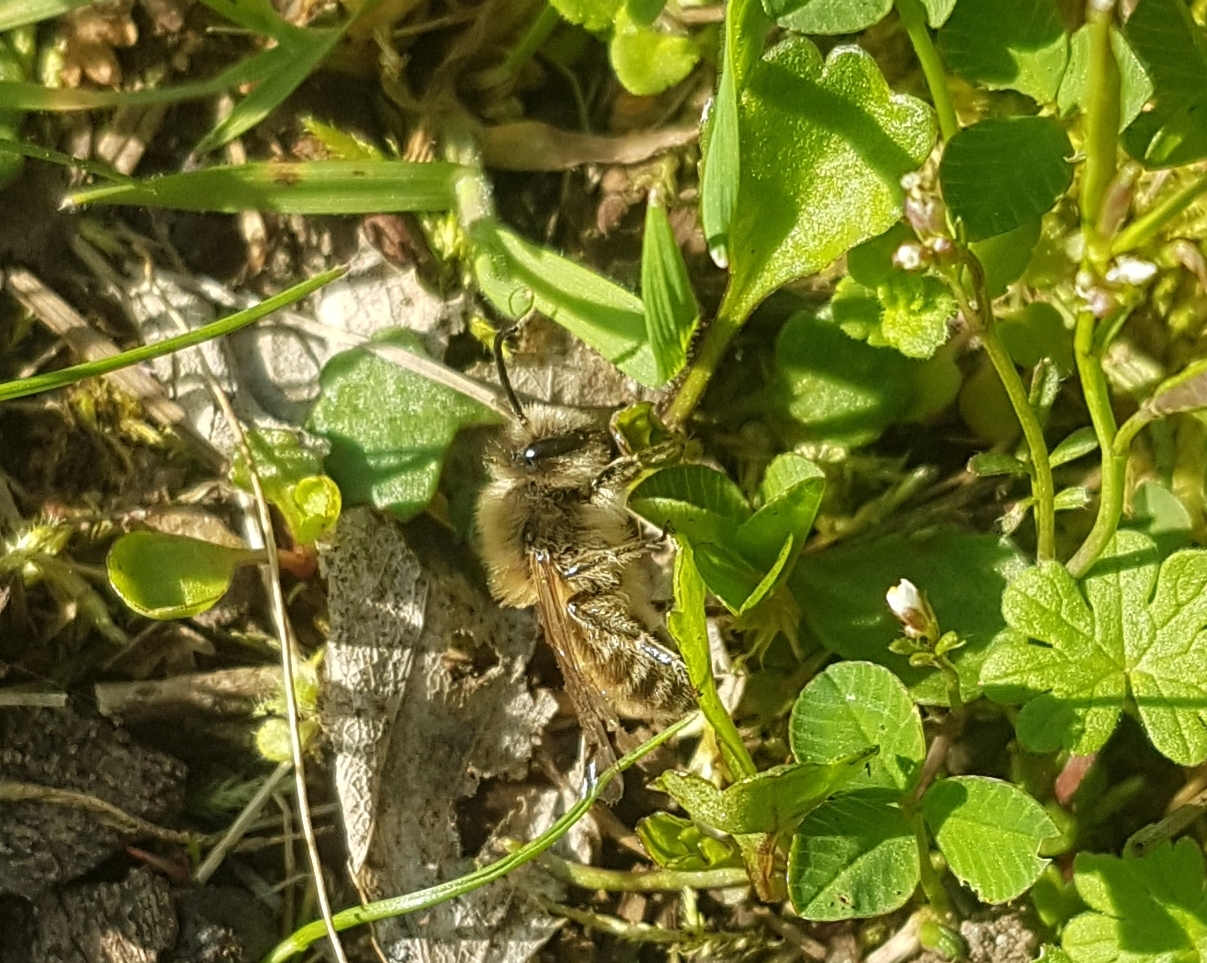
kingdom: Animalia
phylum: Arthropoda
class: Insecta
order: Hymenoptera
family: Colletidae
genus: Colletes
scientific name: Colletes cunicularius
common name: Early colletes
